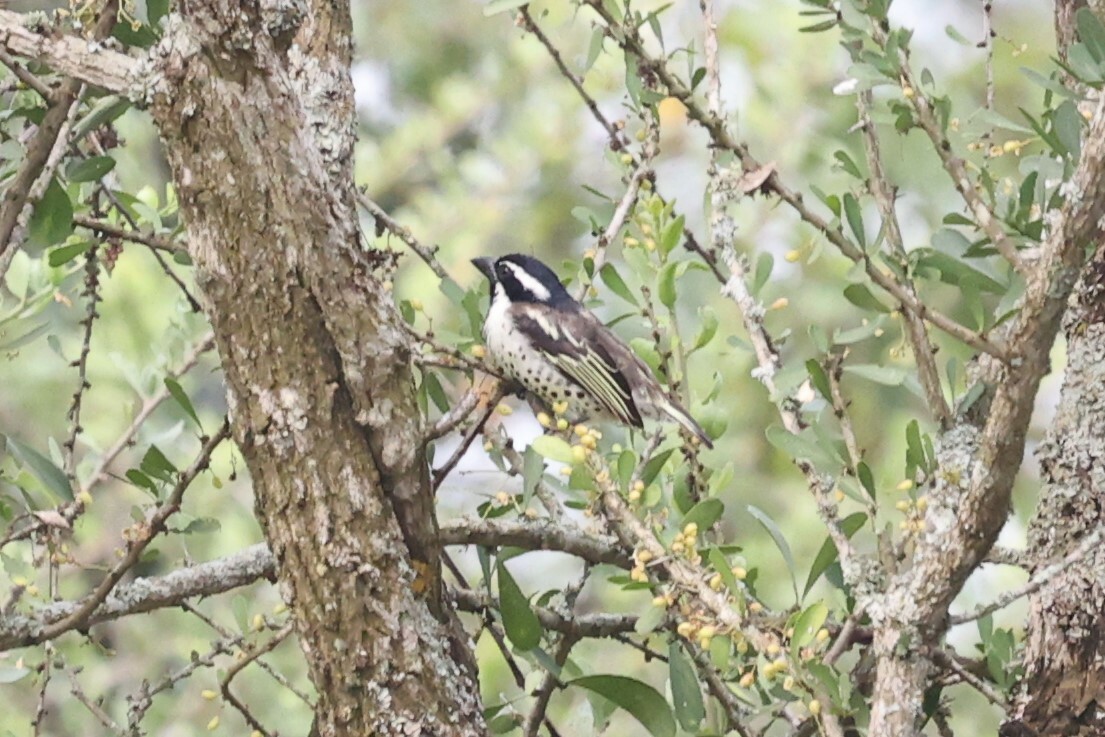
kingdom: Animalia
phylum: Chordata
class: Aves
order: Piciformes
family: Lybiidae
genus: Tricholaema
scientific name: Tricholaema lacrymosa
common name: Spot-flanked barbet
